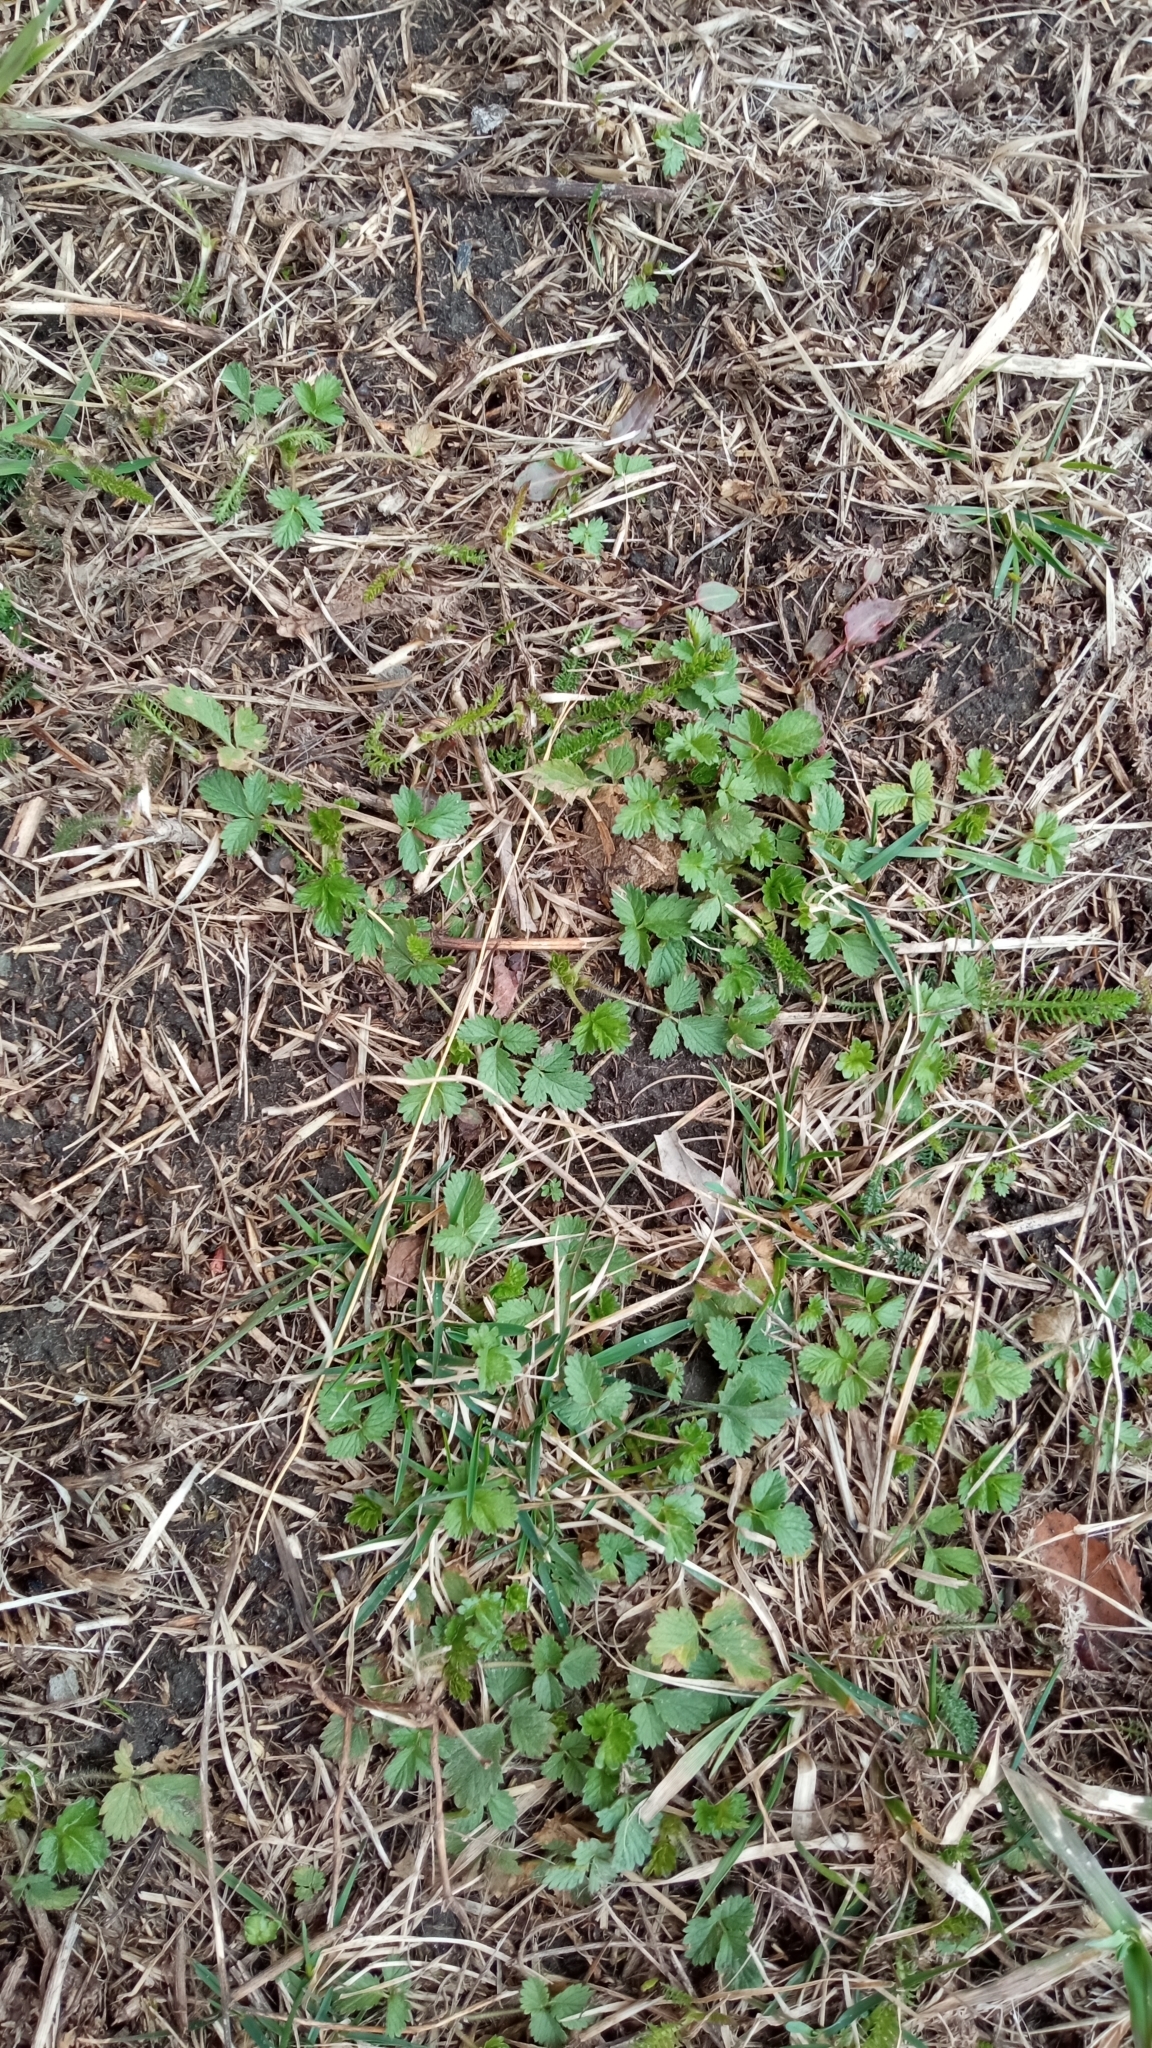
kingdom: Plantae
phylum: Tracheophyta
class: Magnoliopsida
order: Rosales
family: Rosaceae
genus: Potentilla
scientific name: Potentilla supina
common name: Prostrate cinquefoil
